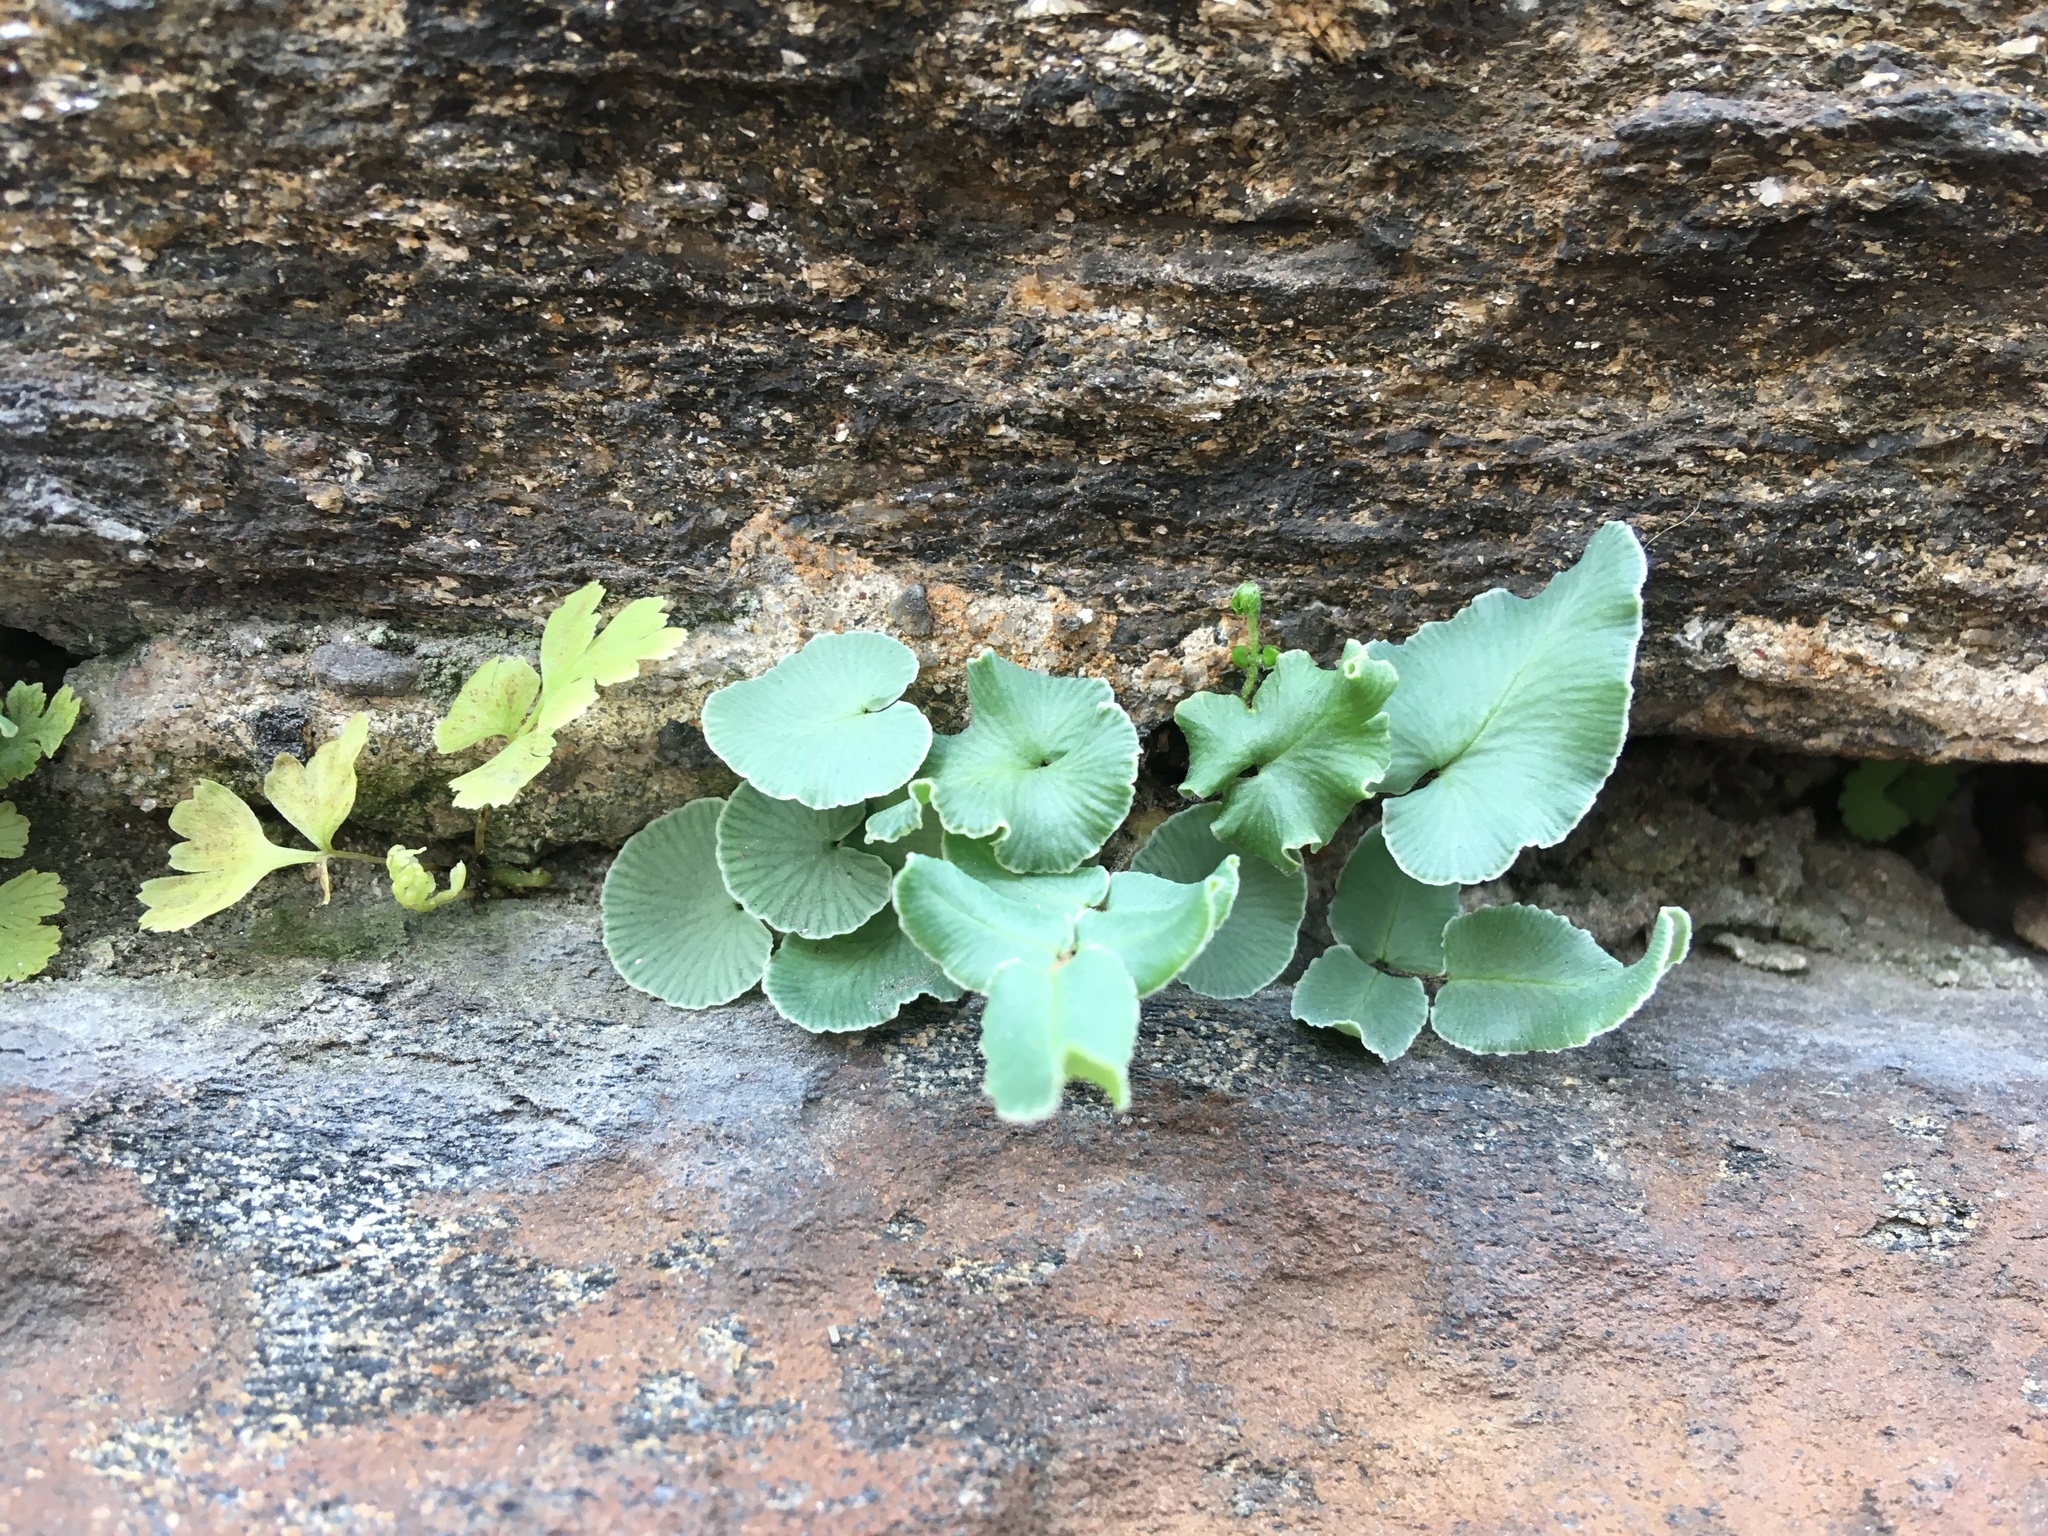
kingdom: Plantae
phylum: Tracheophyta
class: Polypodiopsida
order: Polypodiales
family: Pteridaceae
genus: Pellaea
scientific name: Pellaea atropurpurea
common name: Hairy cliffbrake
